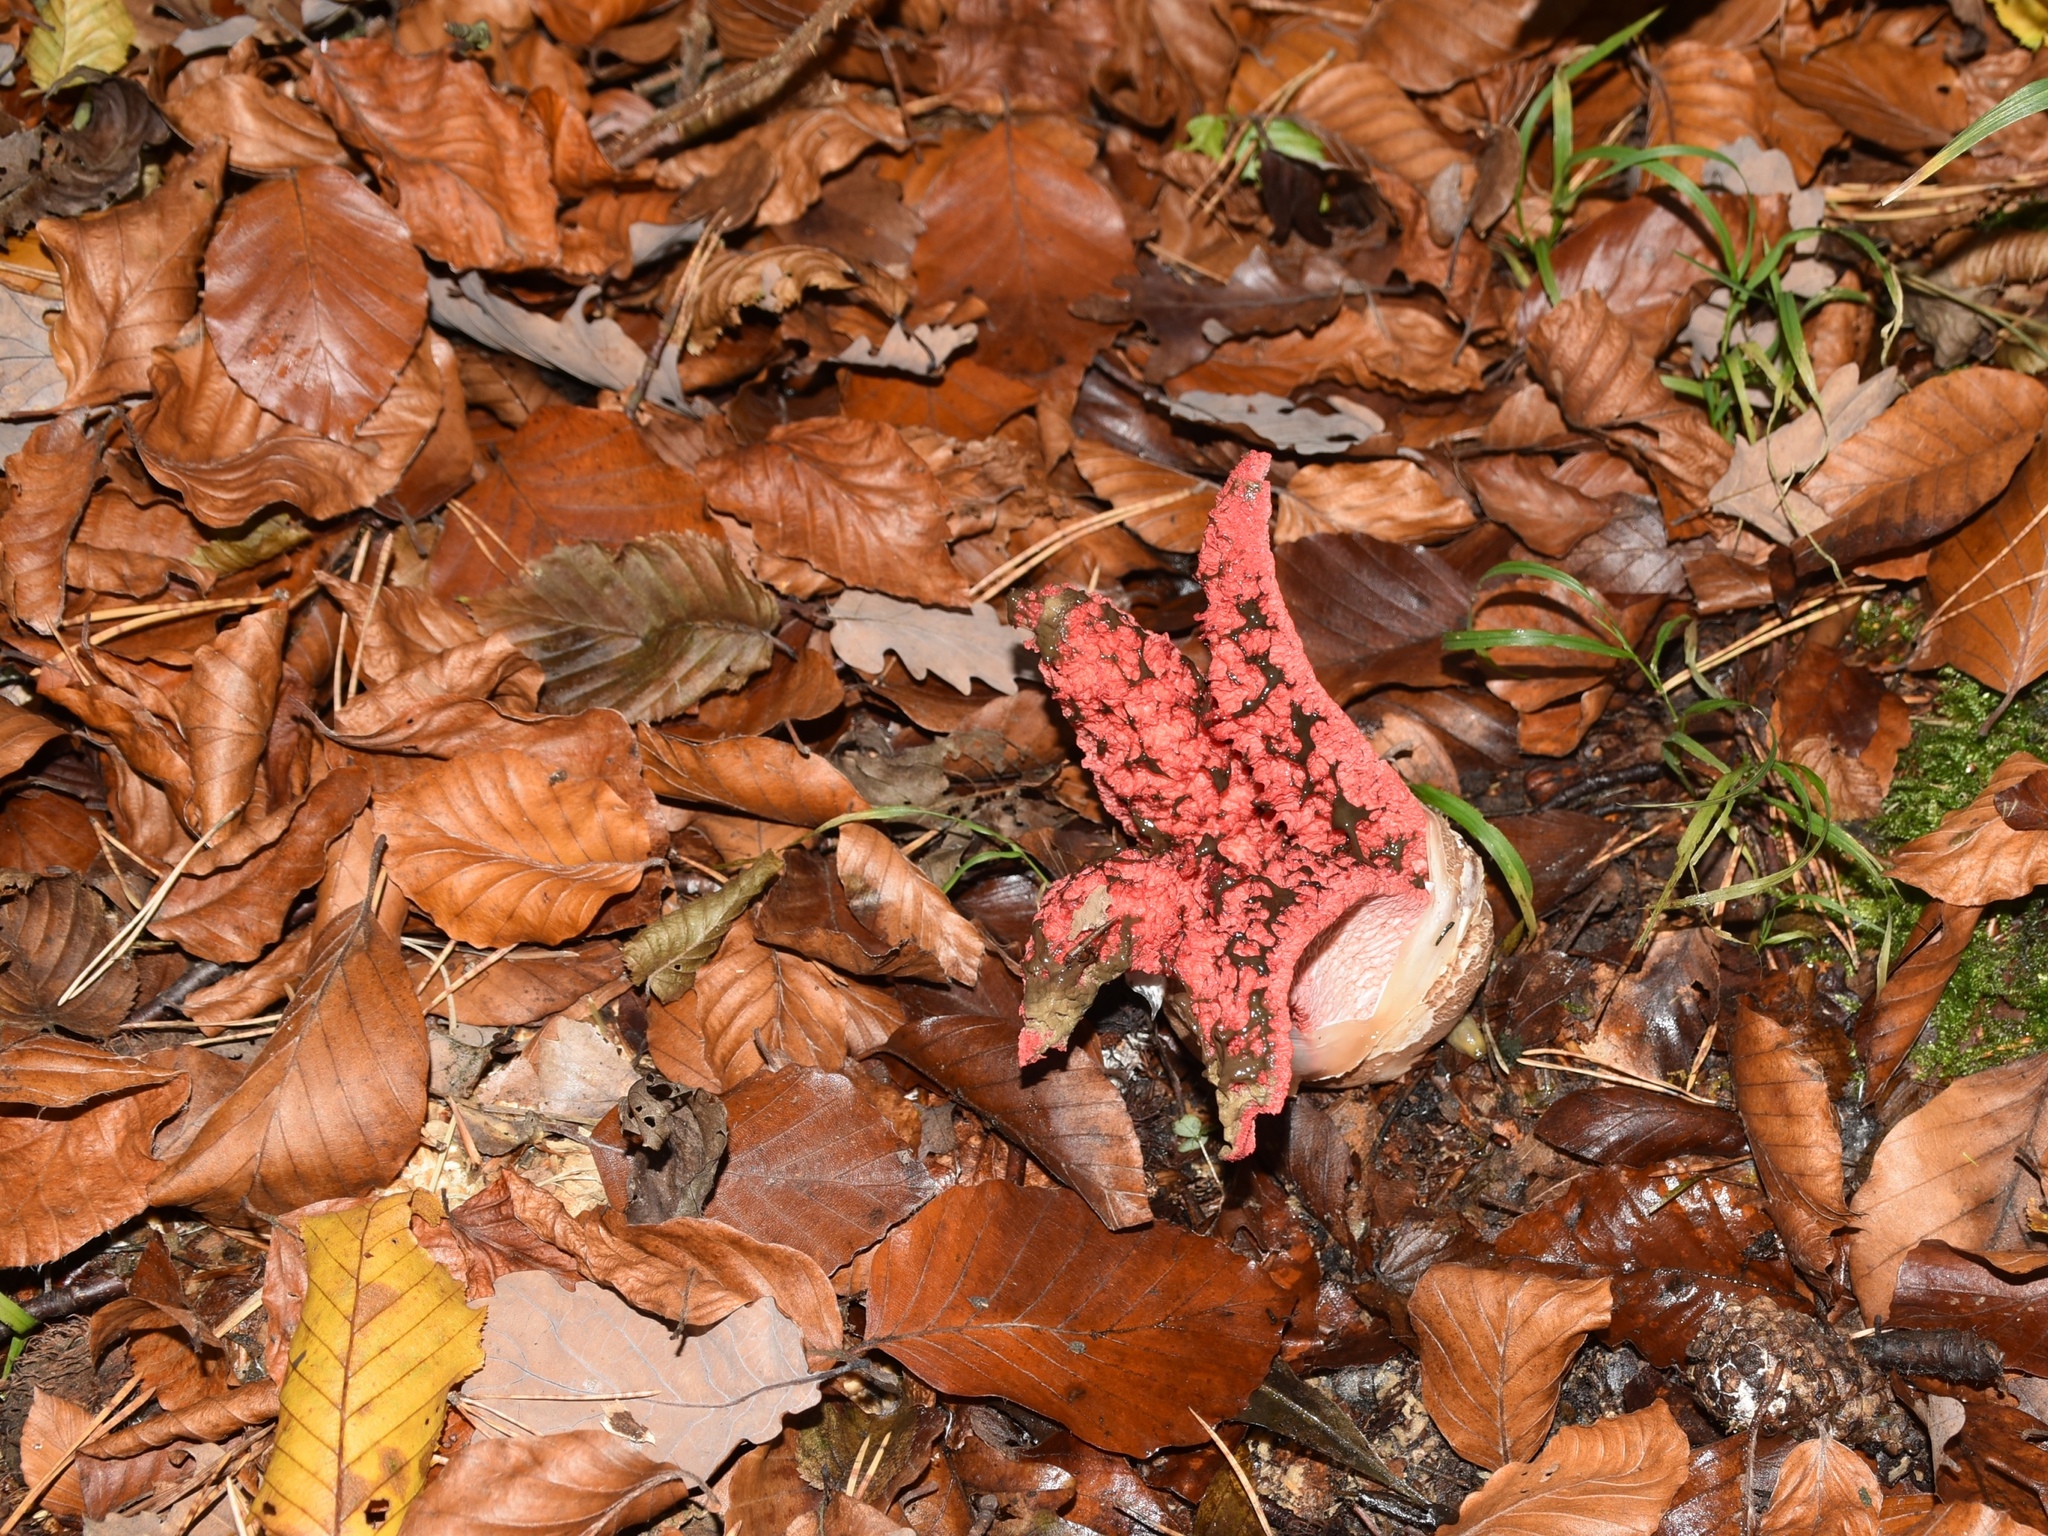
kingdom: Fungi
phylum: Basidiomycota
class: Agaricomycetes
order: Phallales
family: Phallaceae
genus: Clathrus
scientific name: Clathrus archeri
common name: Devil's fingers
